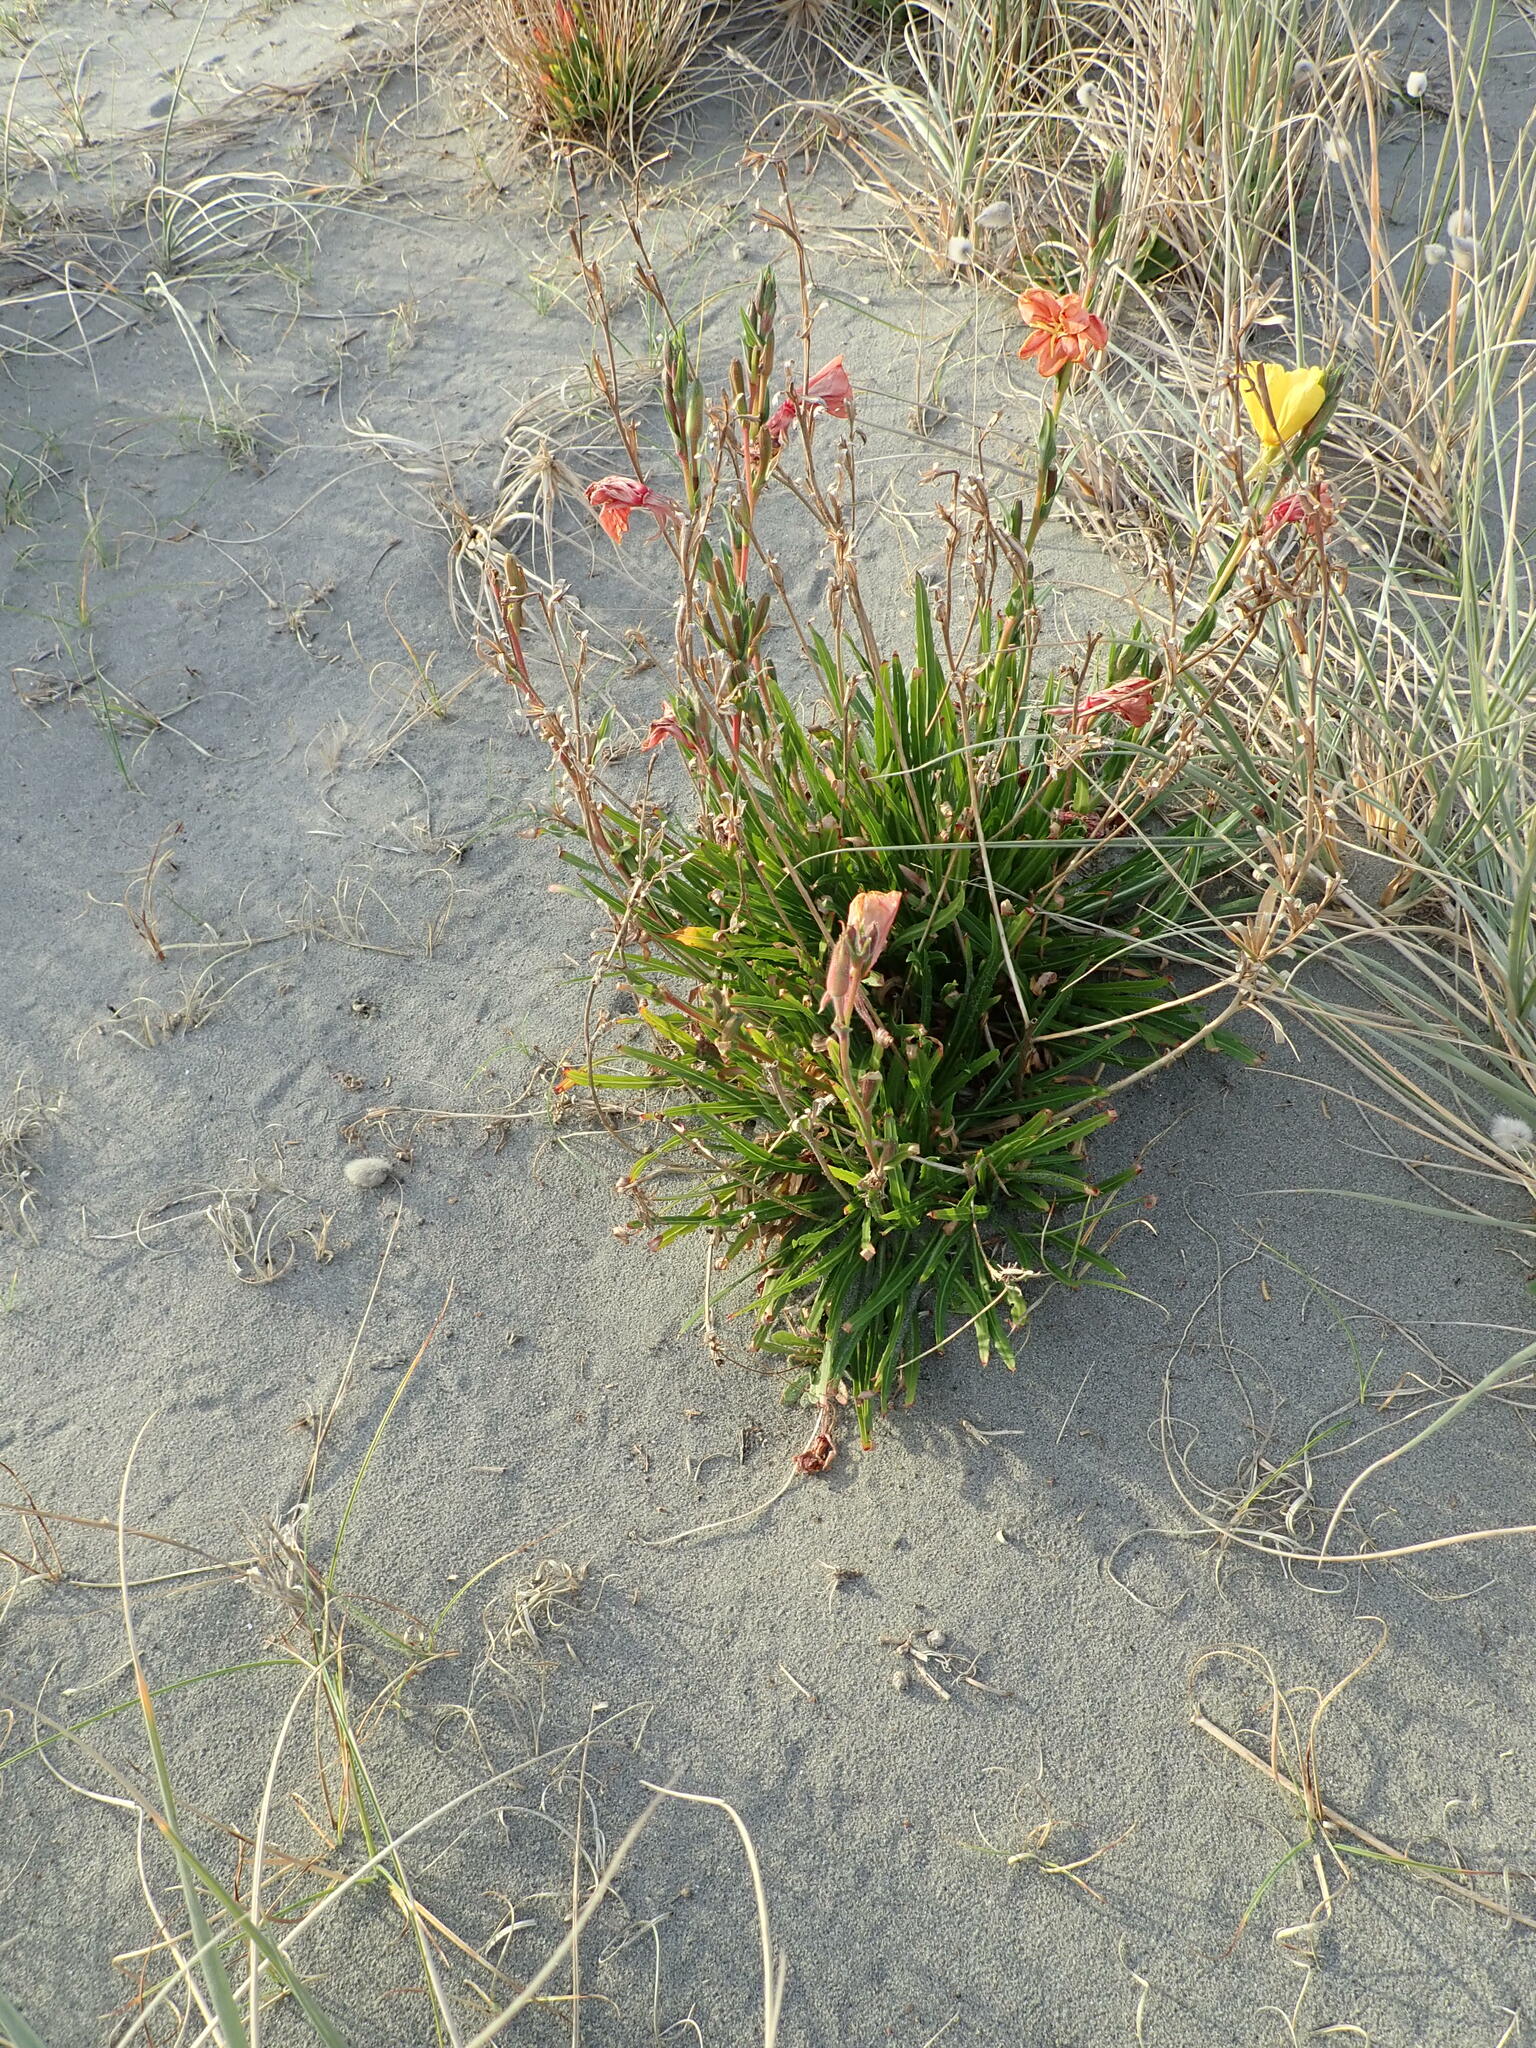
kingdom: Plantae
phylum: Tracheophyta
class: Magnoliopsida
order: Myrtales
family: Onagraceae
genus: Oenothera
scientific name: Oenothera stricta
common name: Fragrant evening-primrose
